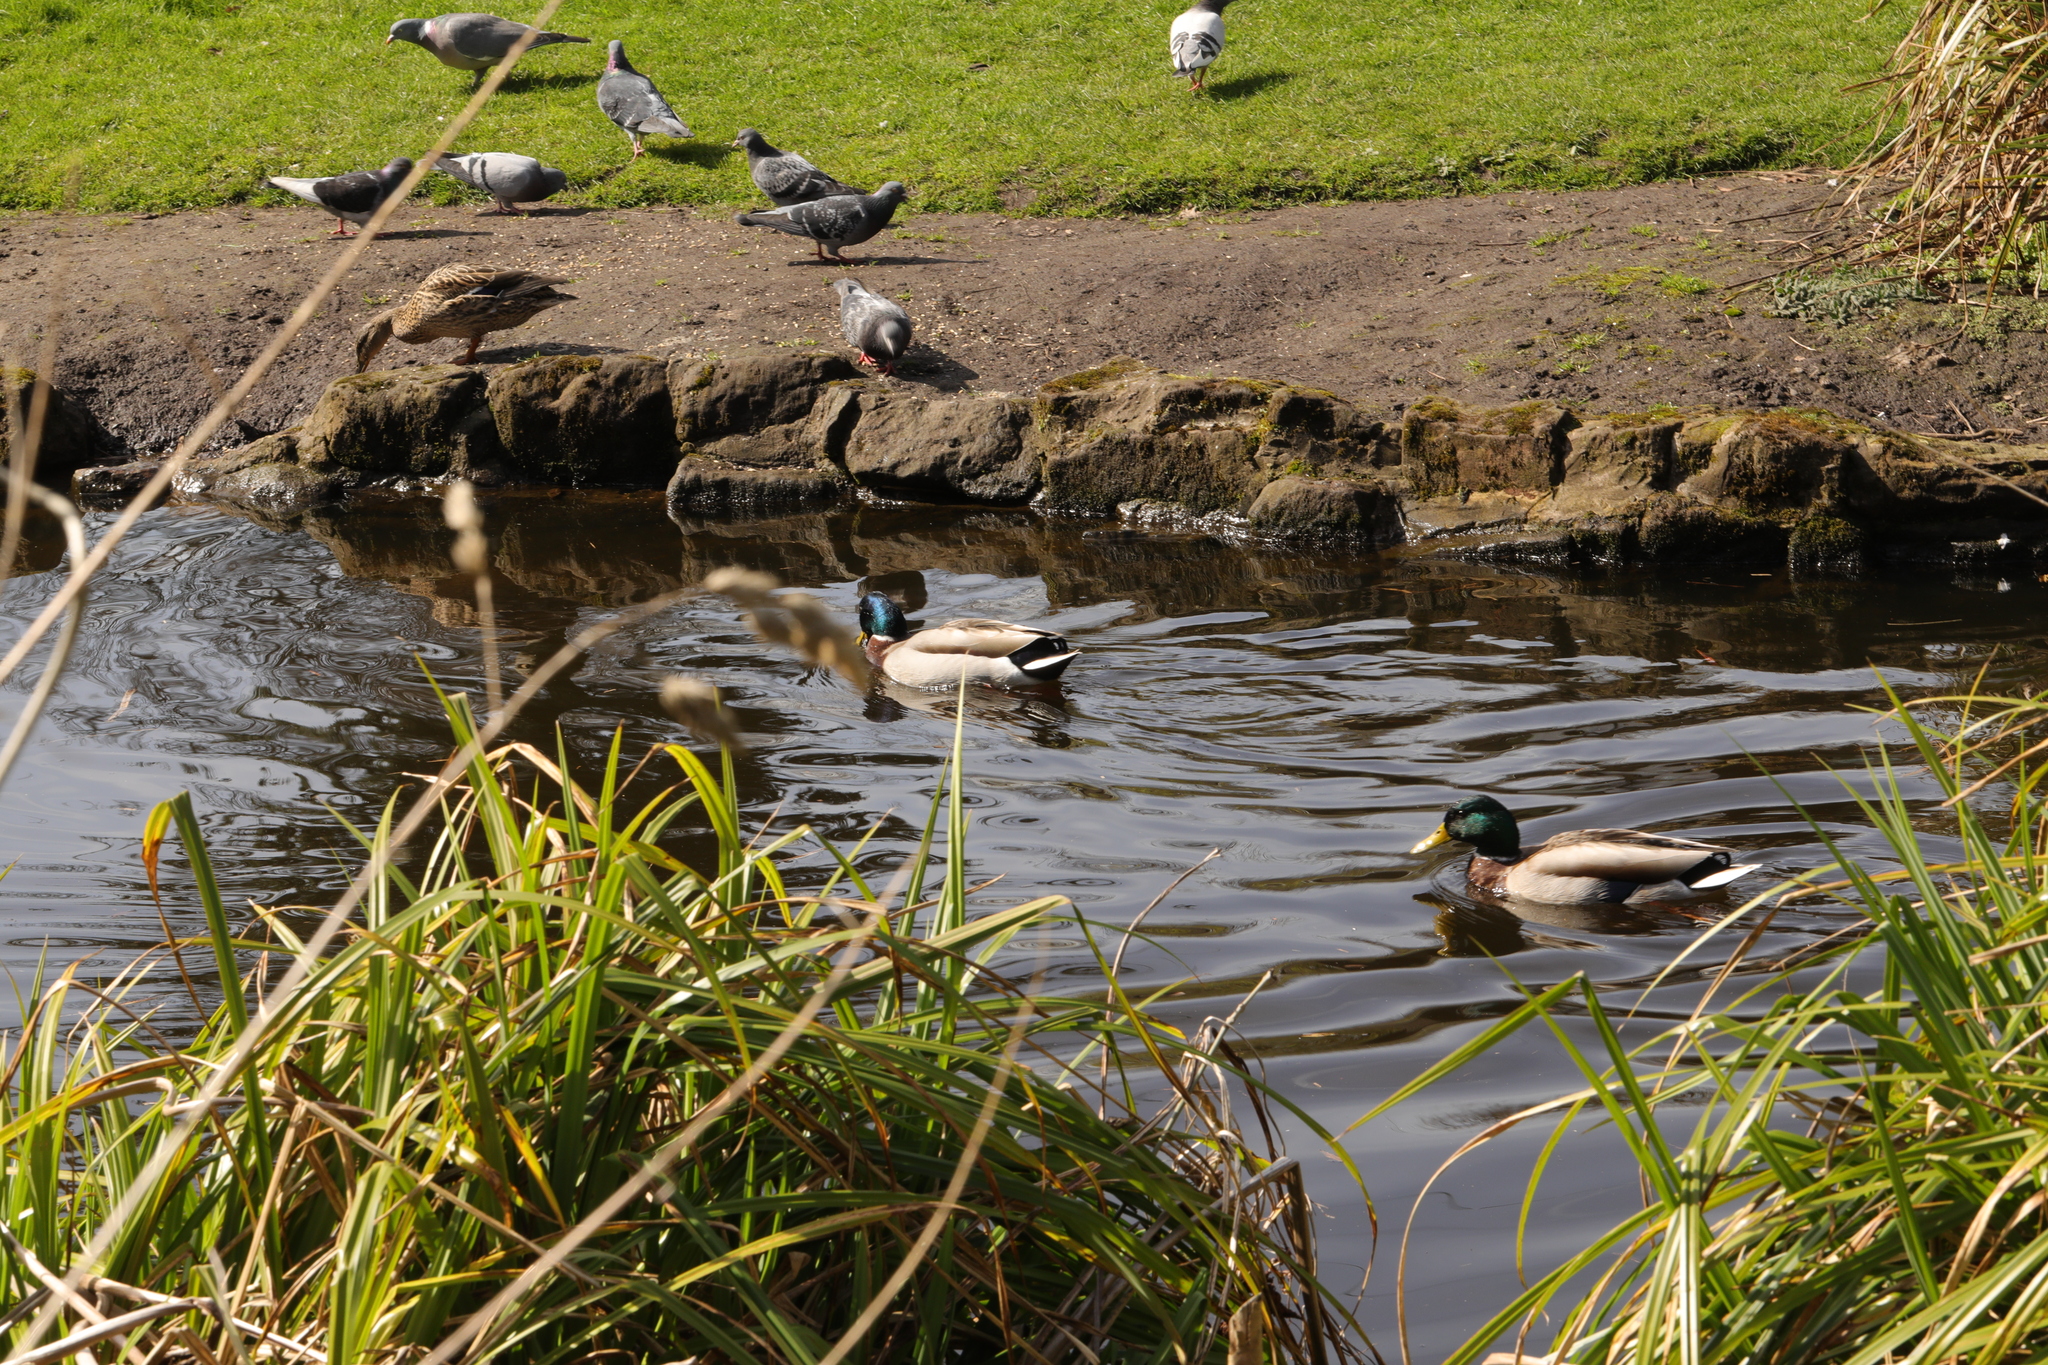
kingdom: Animalia
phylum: Chordata
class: Aves
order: Anseriformes
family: Anatidae
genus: Anas
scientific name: Anas platyrhynchos
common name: Mallard
